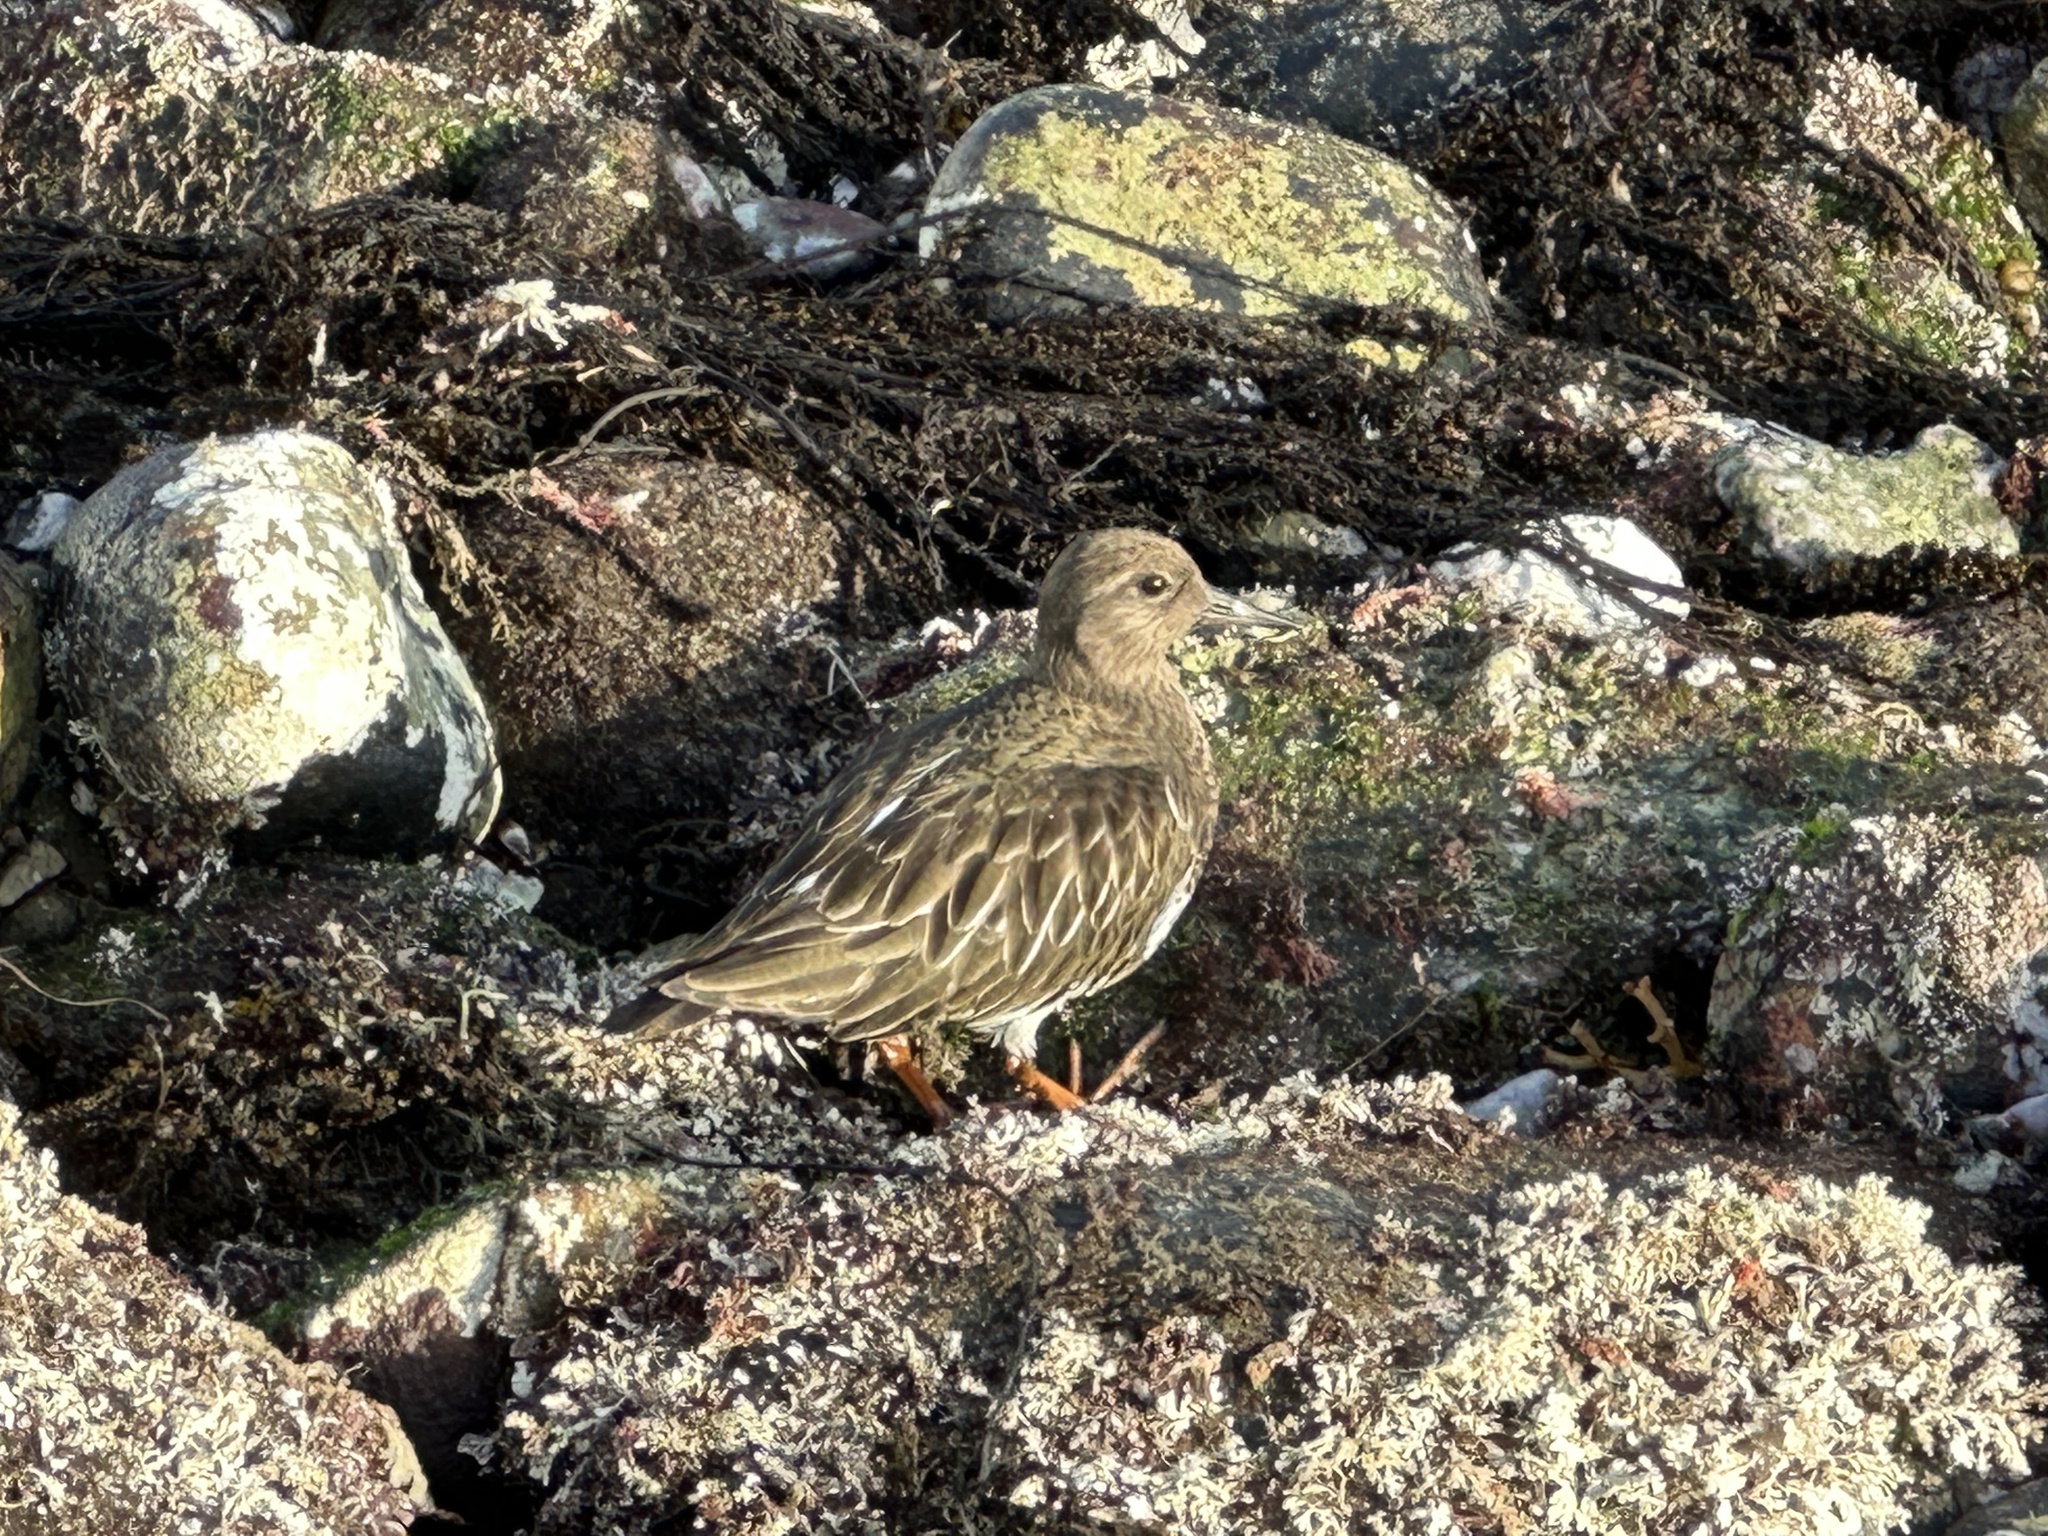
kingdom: Animalia
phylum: Chordata
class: Aves
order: Charadriiformes
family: Scolopacidae
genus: Arenaria
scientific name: Arenaria melanocephala
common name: Black turnstone
